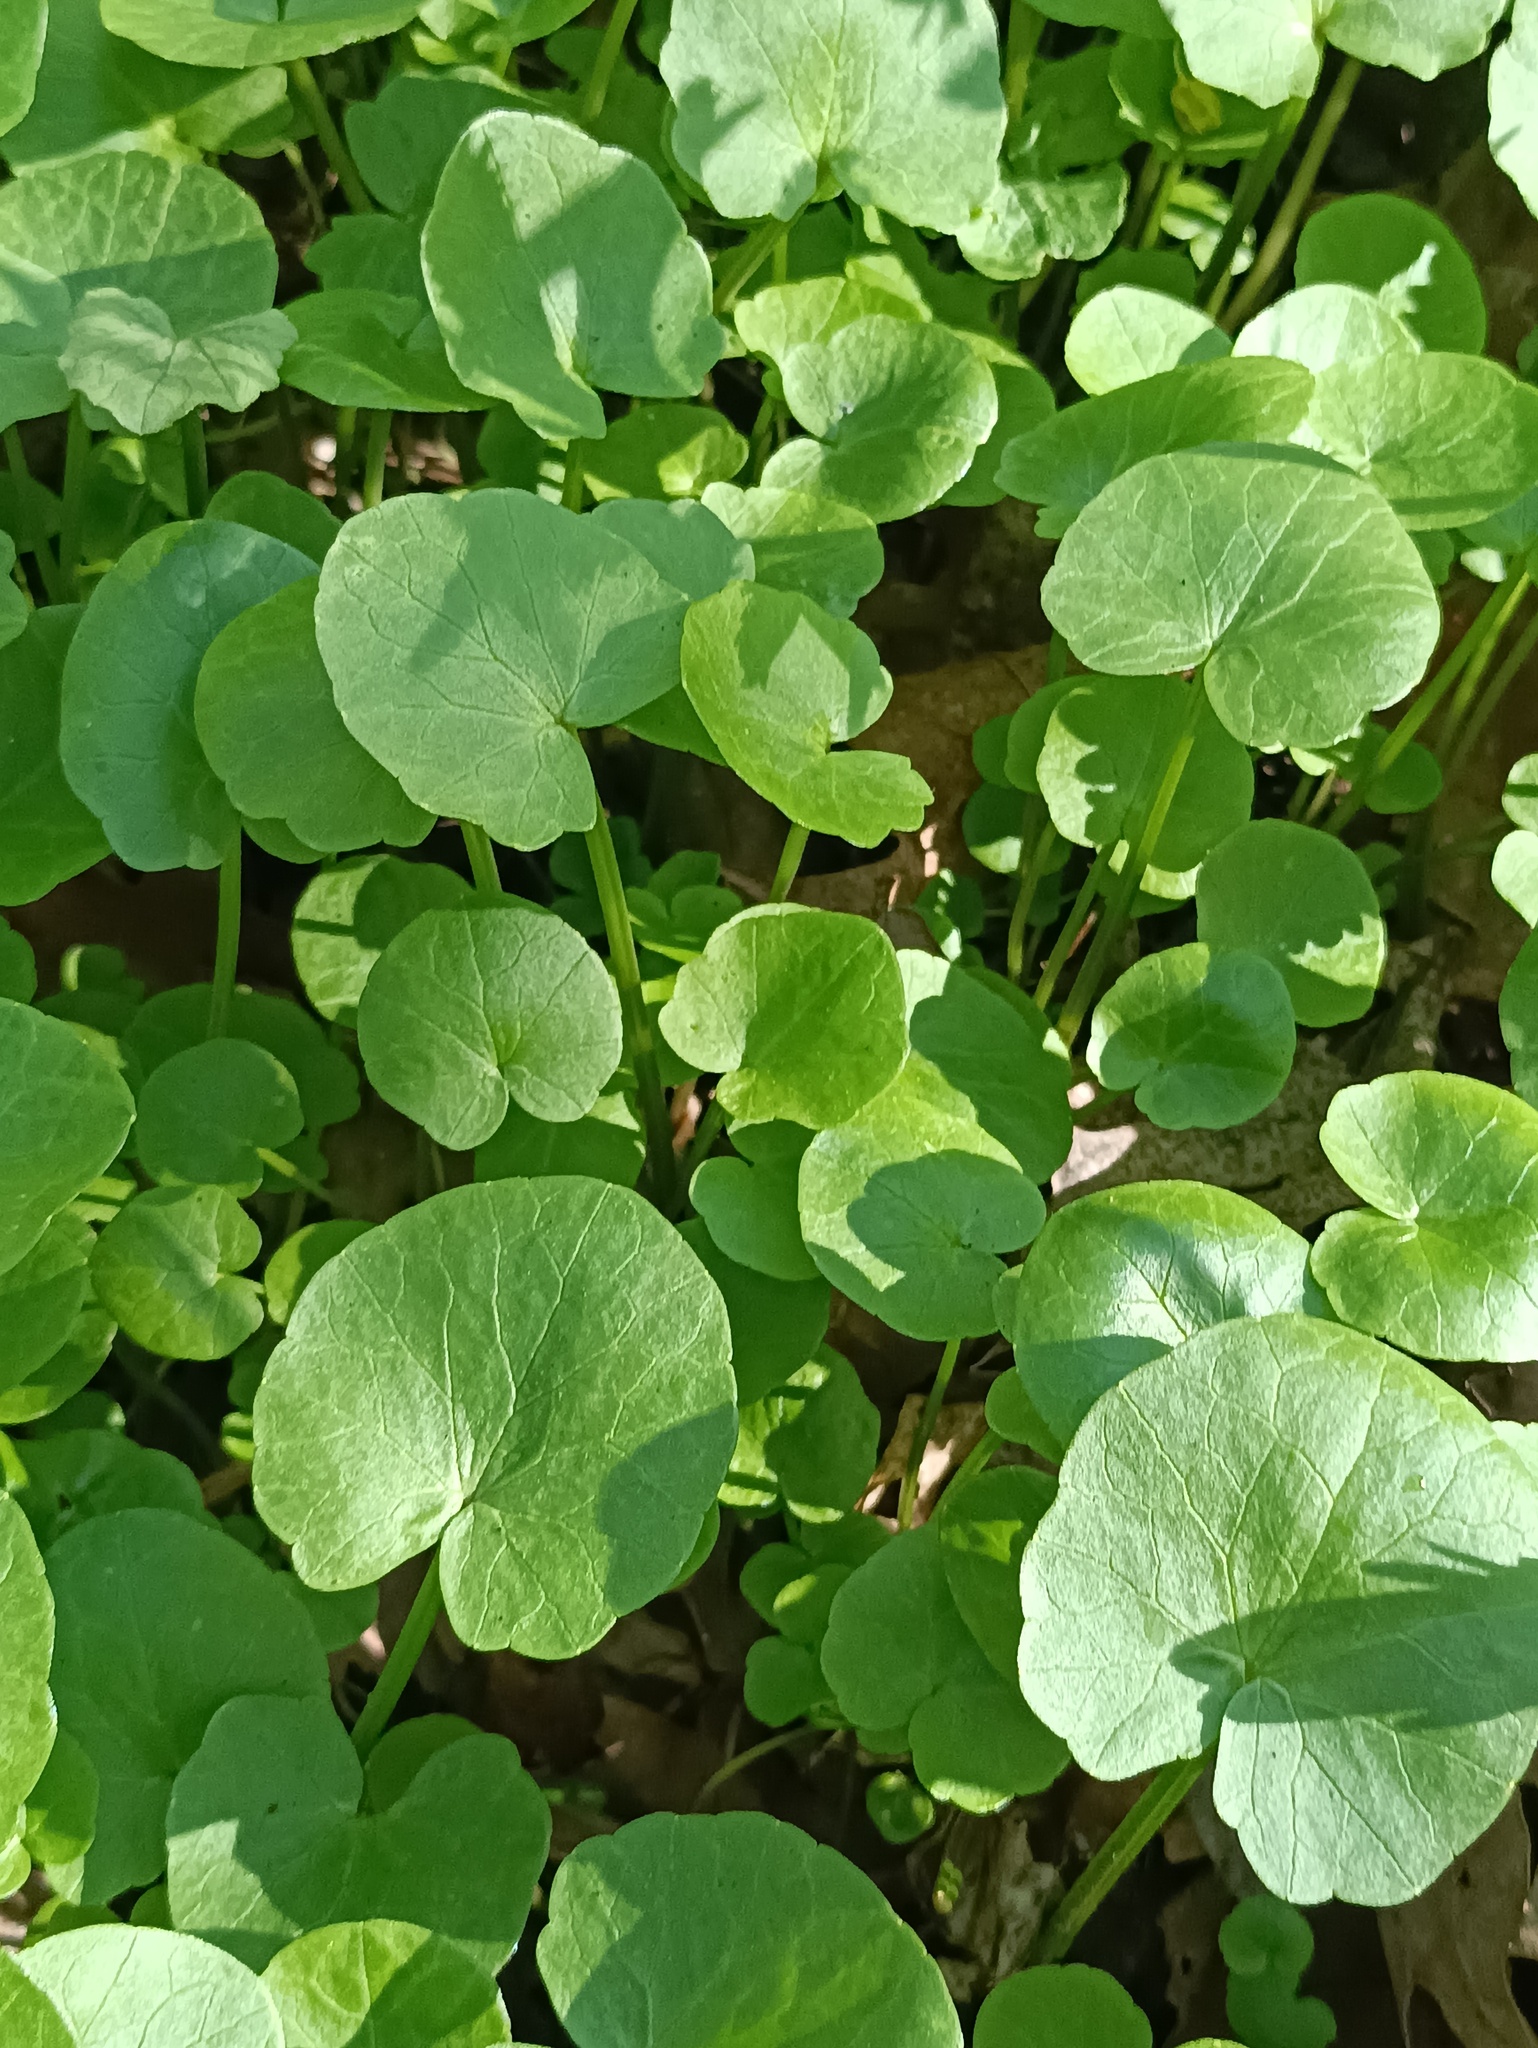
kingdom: Plantae
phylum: Tracheophyta
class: Magnoliopsida
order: Ranunculales
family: Ranunculaceae
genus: Ficaria
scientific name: Ficaria verna
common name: Lesser celandine
